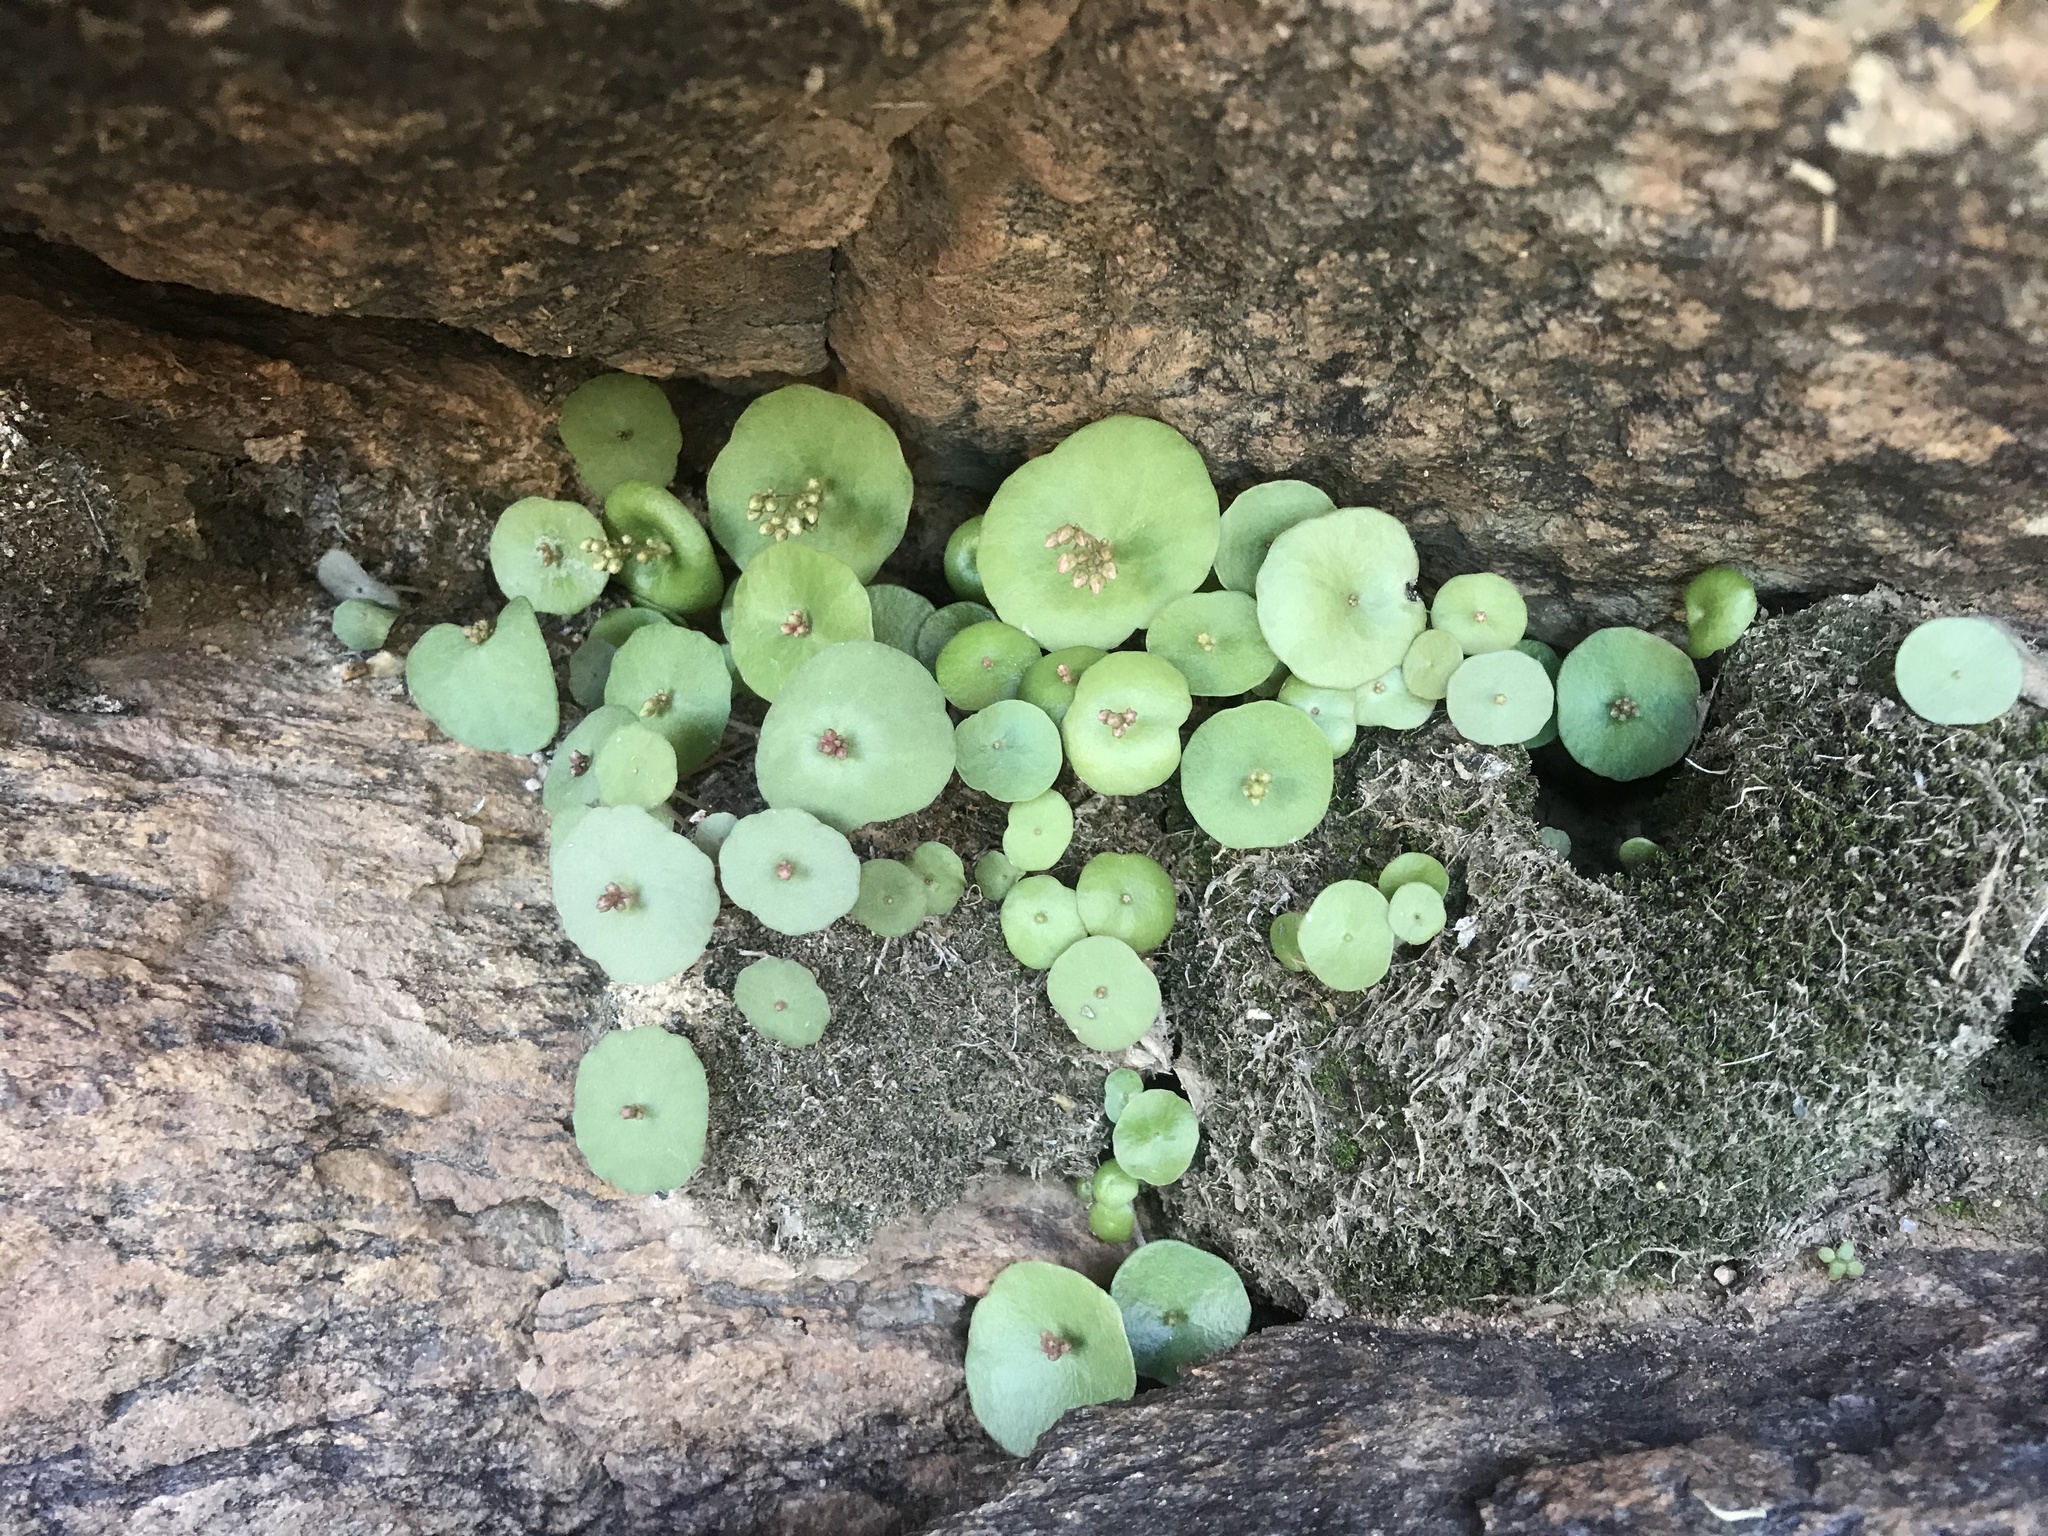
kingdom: Plantae
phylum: Tracheophyta
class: Magnoliopsida
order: Saxifragales
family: Crassulaceae
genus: Crassula
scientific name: Crassula umbella
